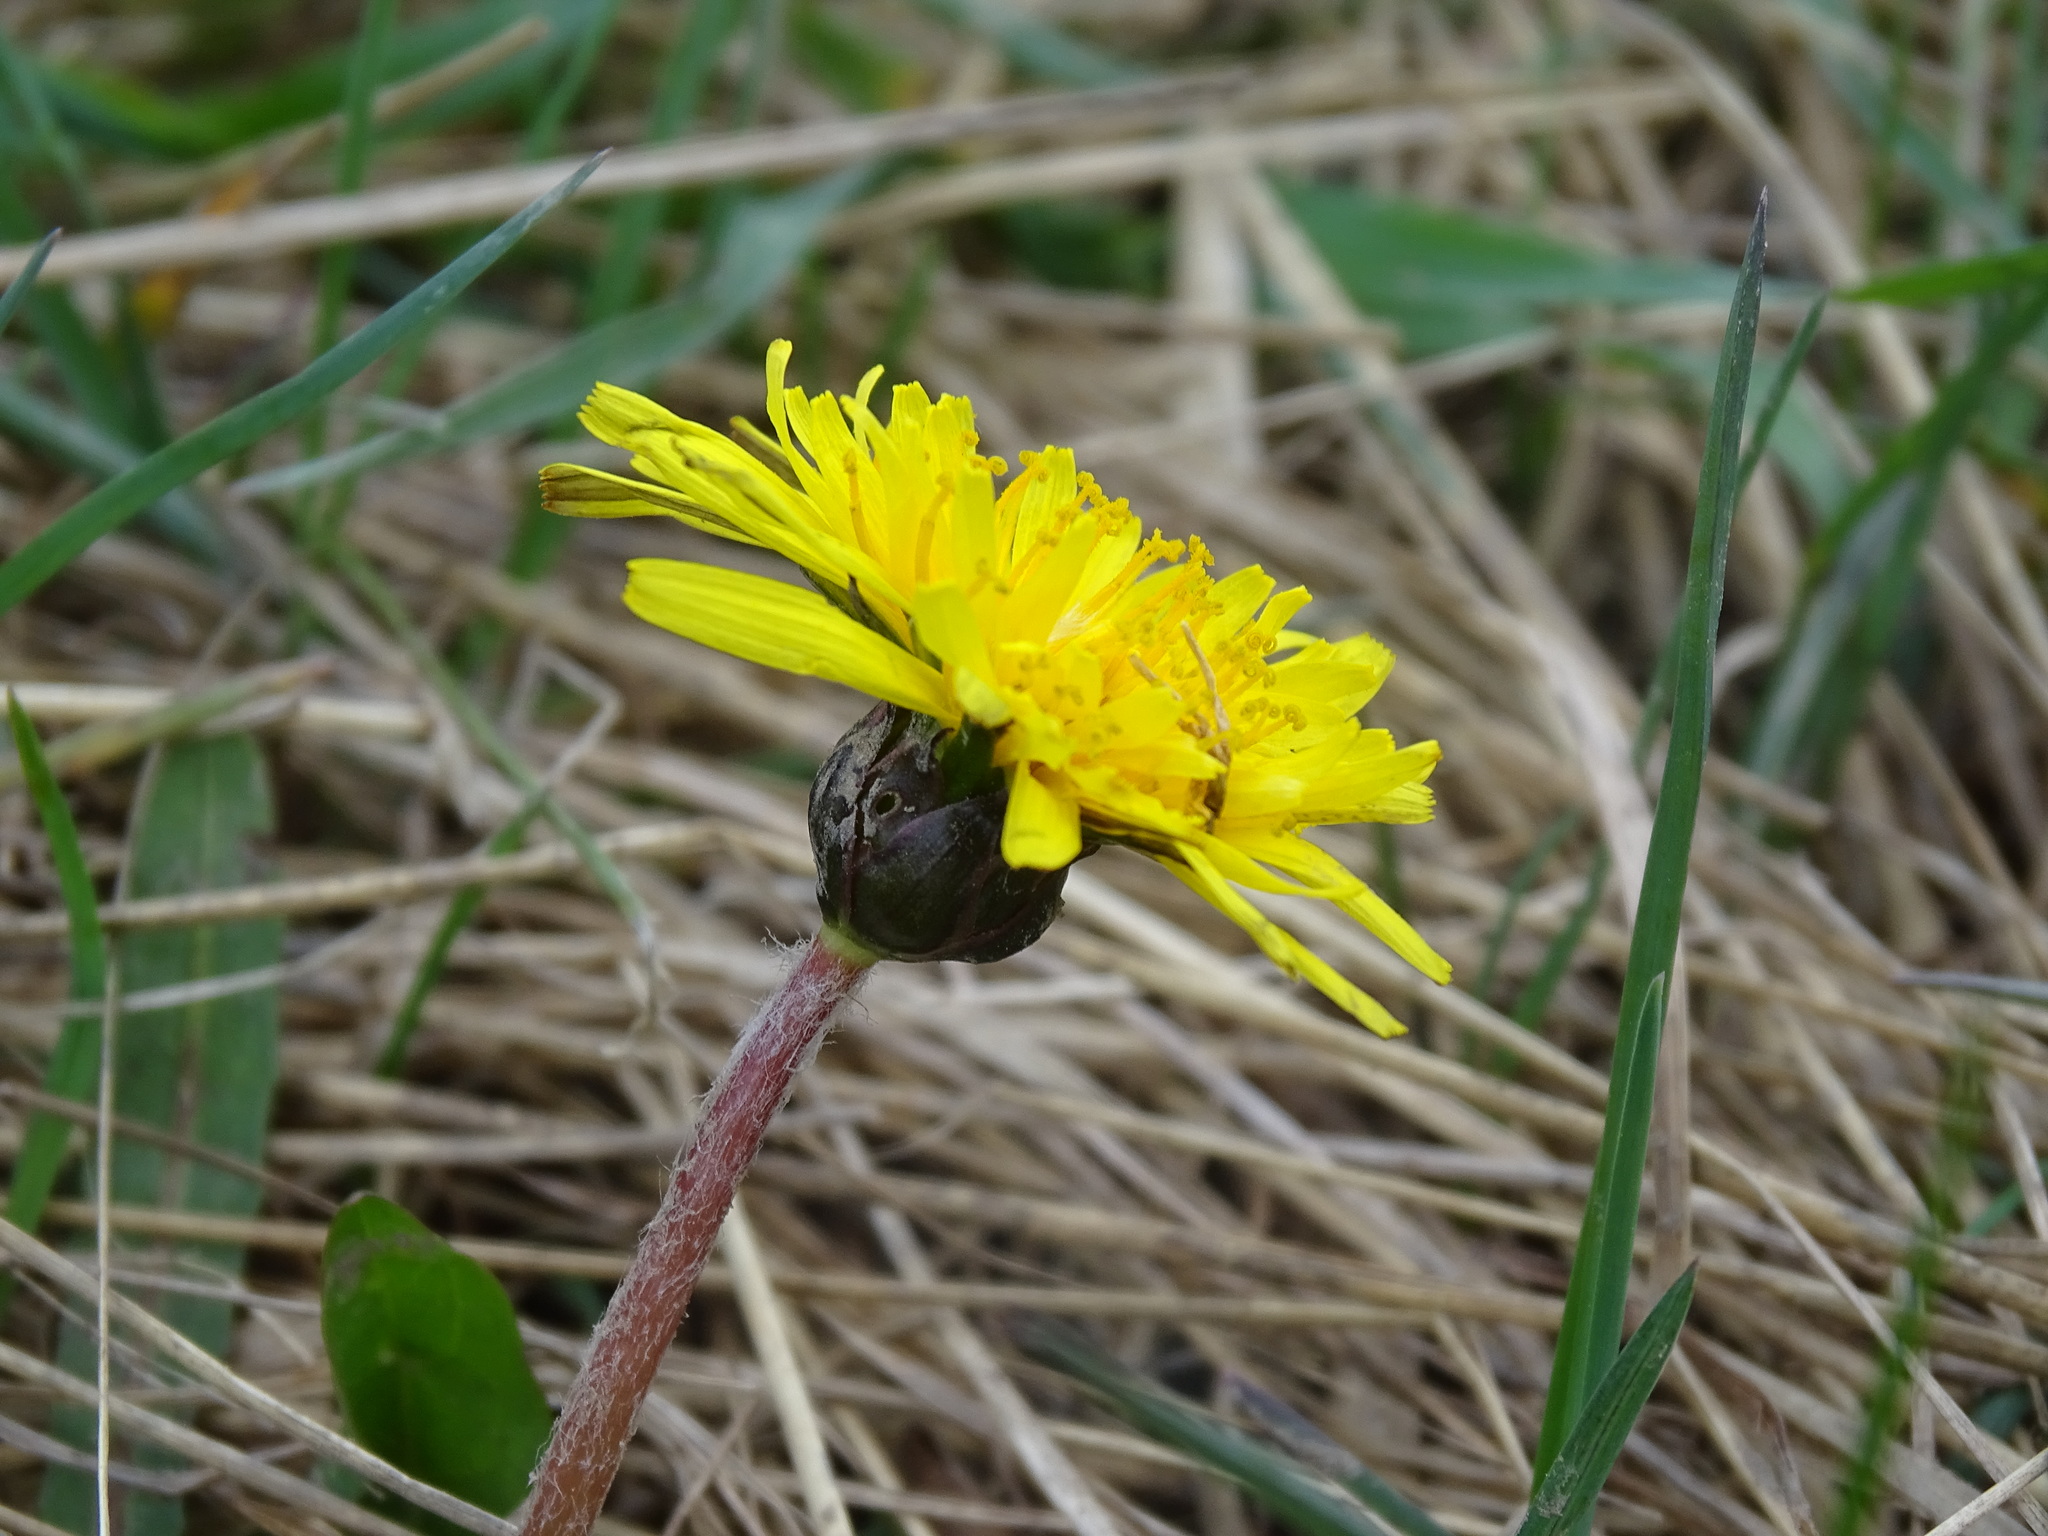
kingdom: Plantae
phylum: Tracheophyta
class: Magnoliopsida
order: Asterales
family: Asteraceae
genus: Taraxacum
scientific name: Taraxacum palustre
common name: Marsh dandelion
